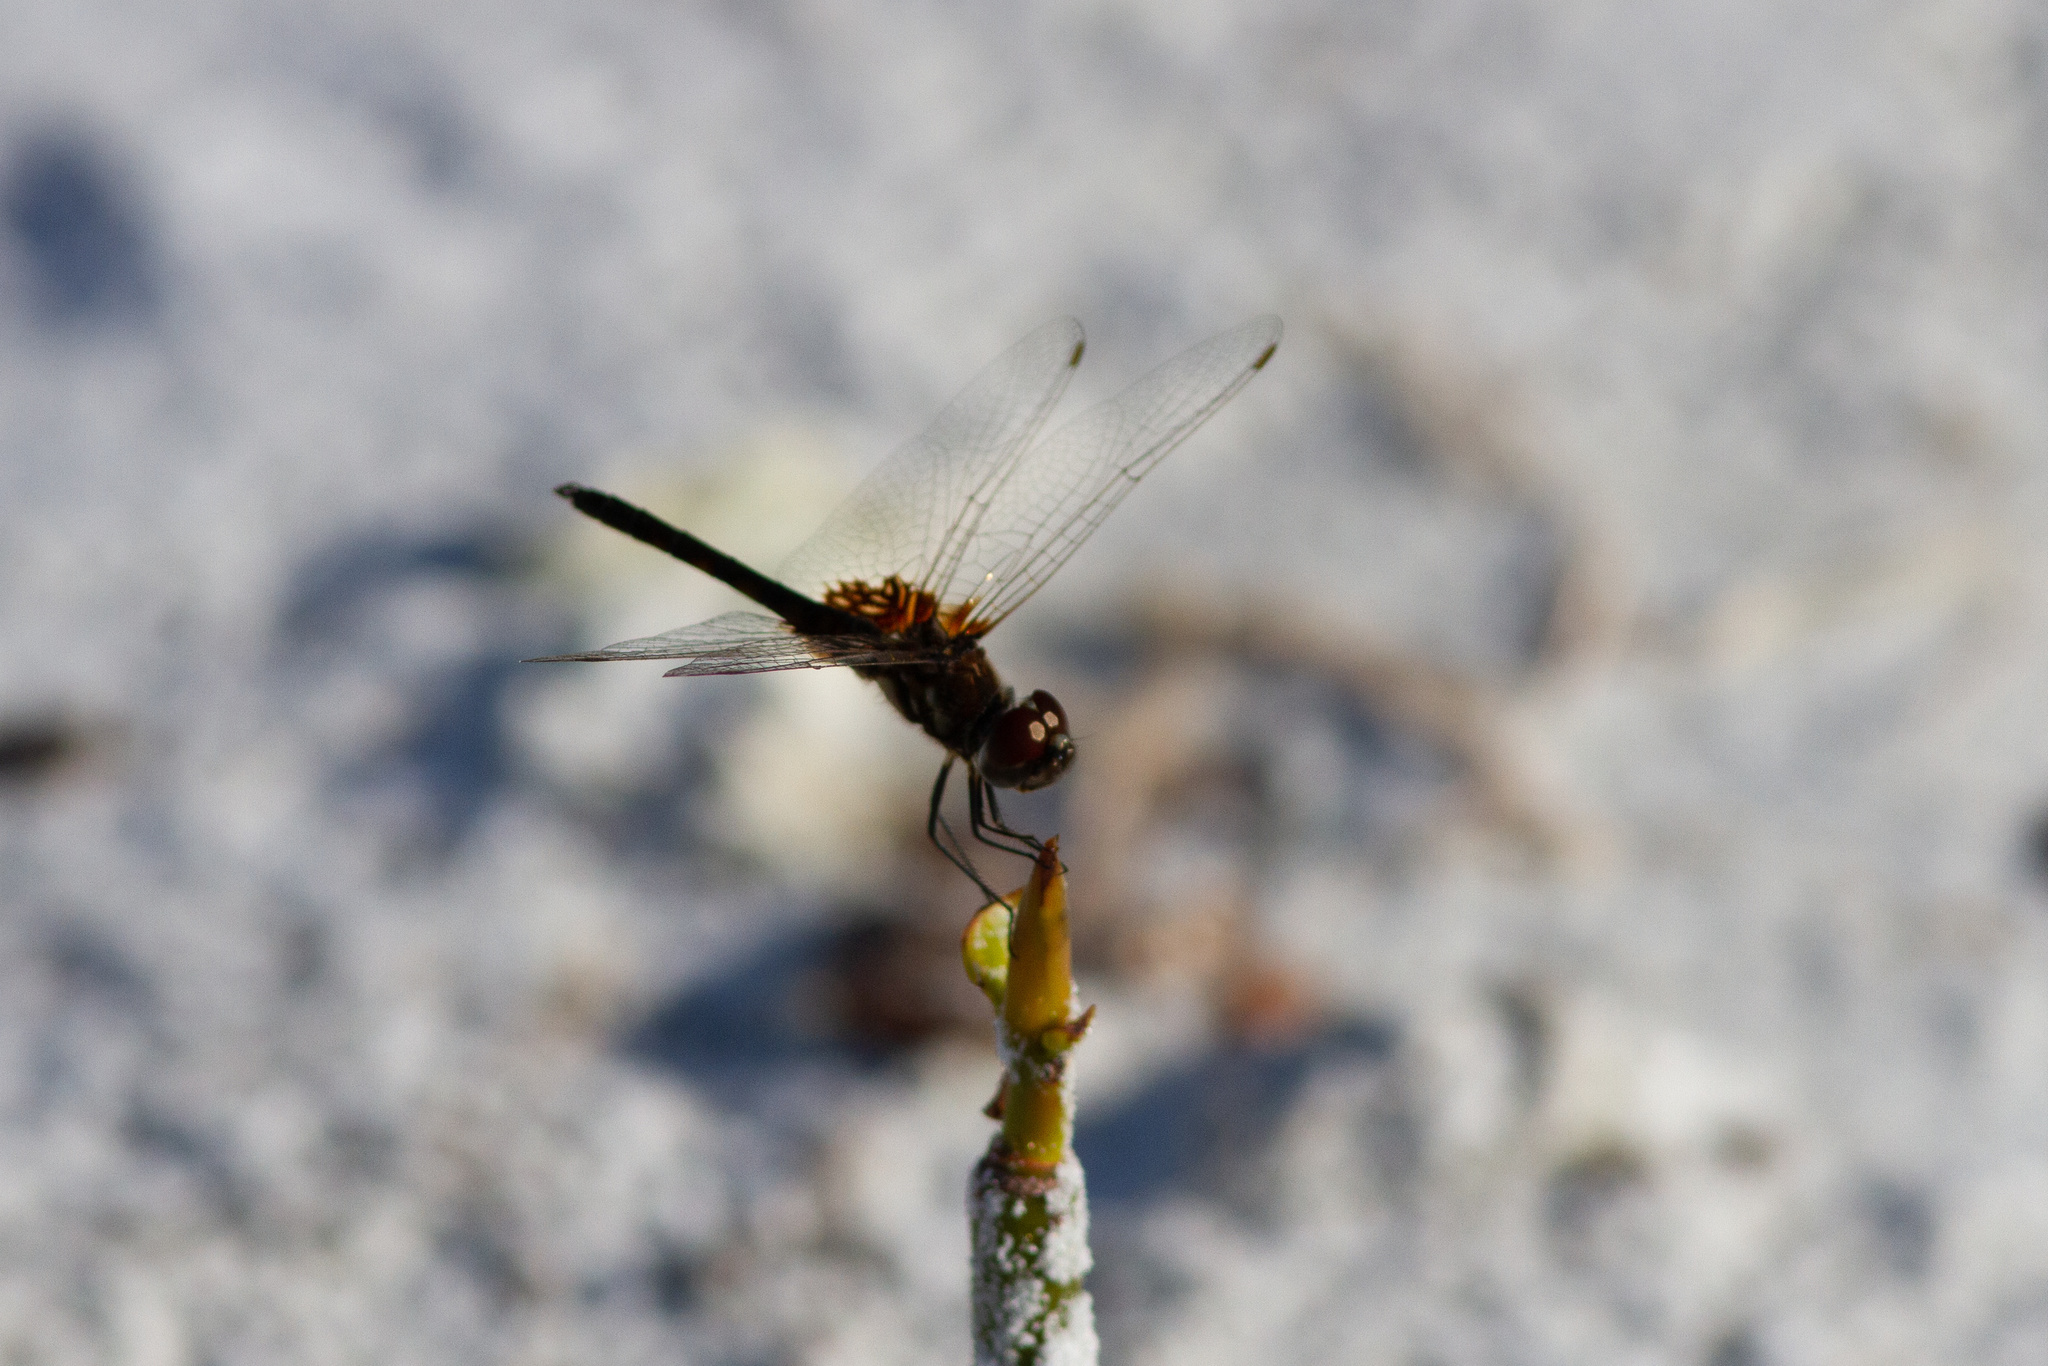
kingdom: Animalia
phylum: Arthropoda
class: Insecta
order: Odonata
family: Libellulidae
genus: Macrodiplax
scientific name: Macrodiplax balteata
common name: Marl pennant
